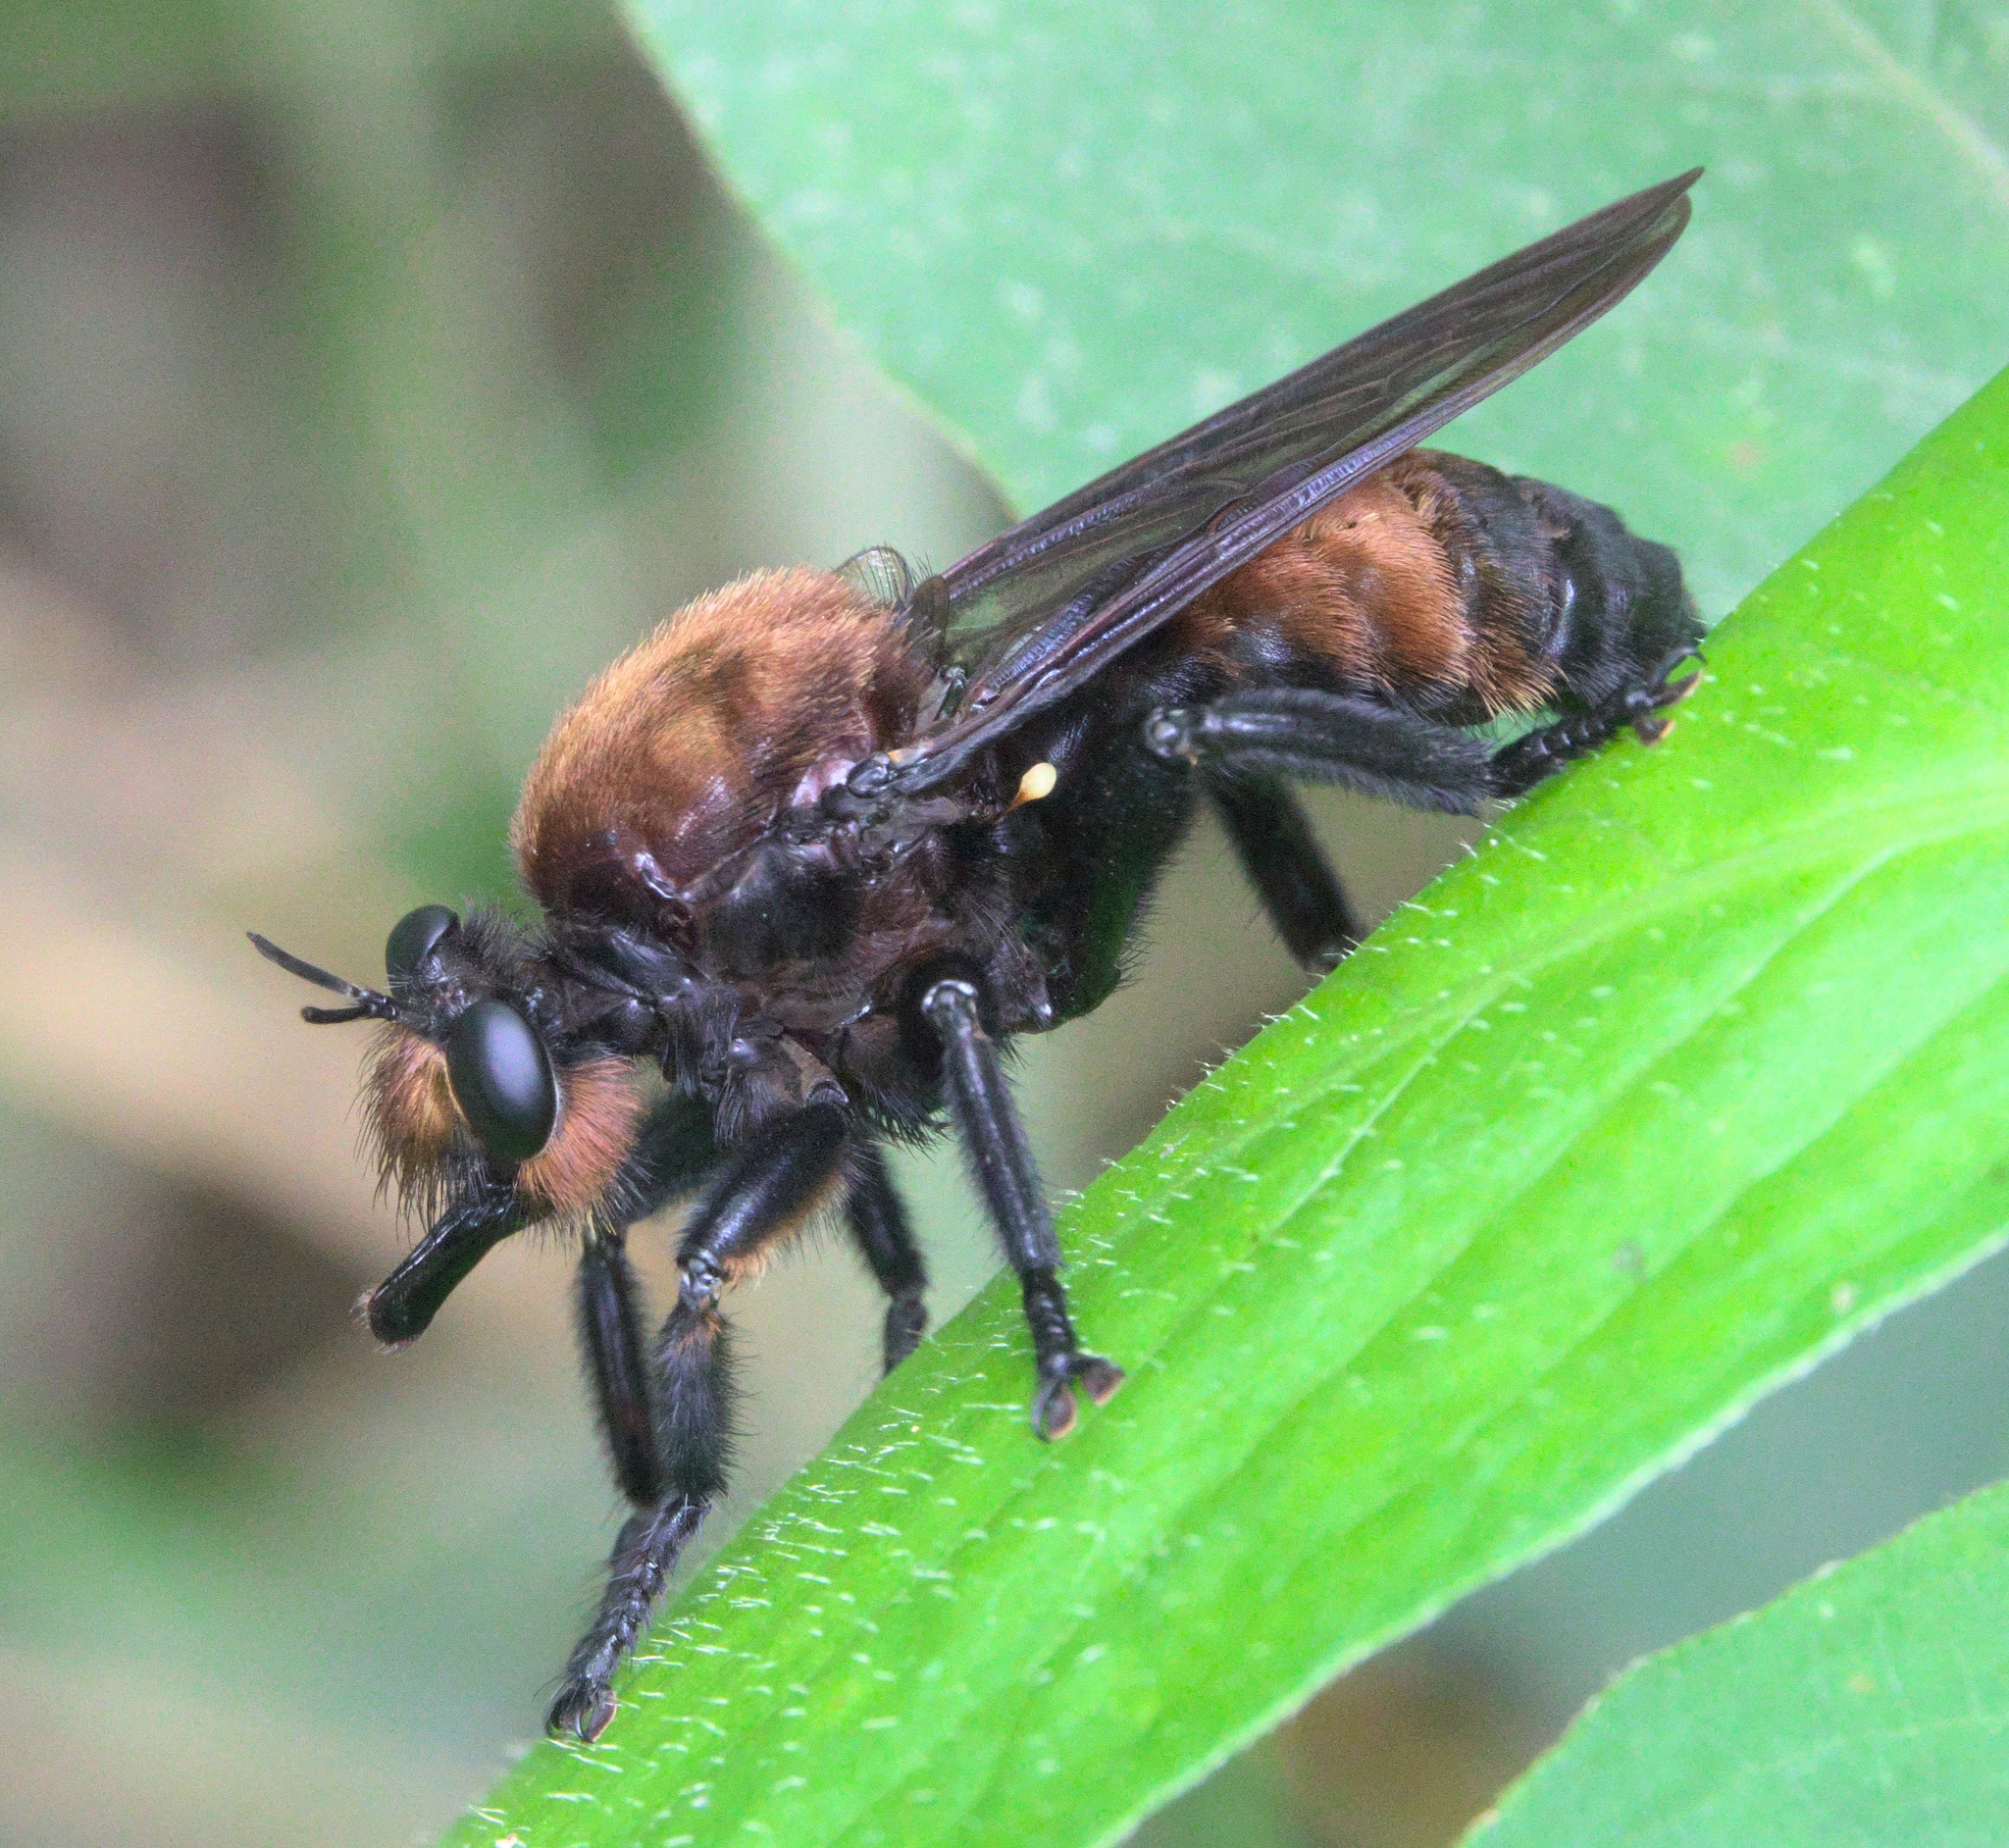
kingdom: Animalia
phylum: Arthropoda
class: Insecta
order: Diptera
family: Asilidae
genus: Laphria
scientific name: Laphria lata
